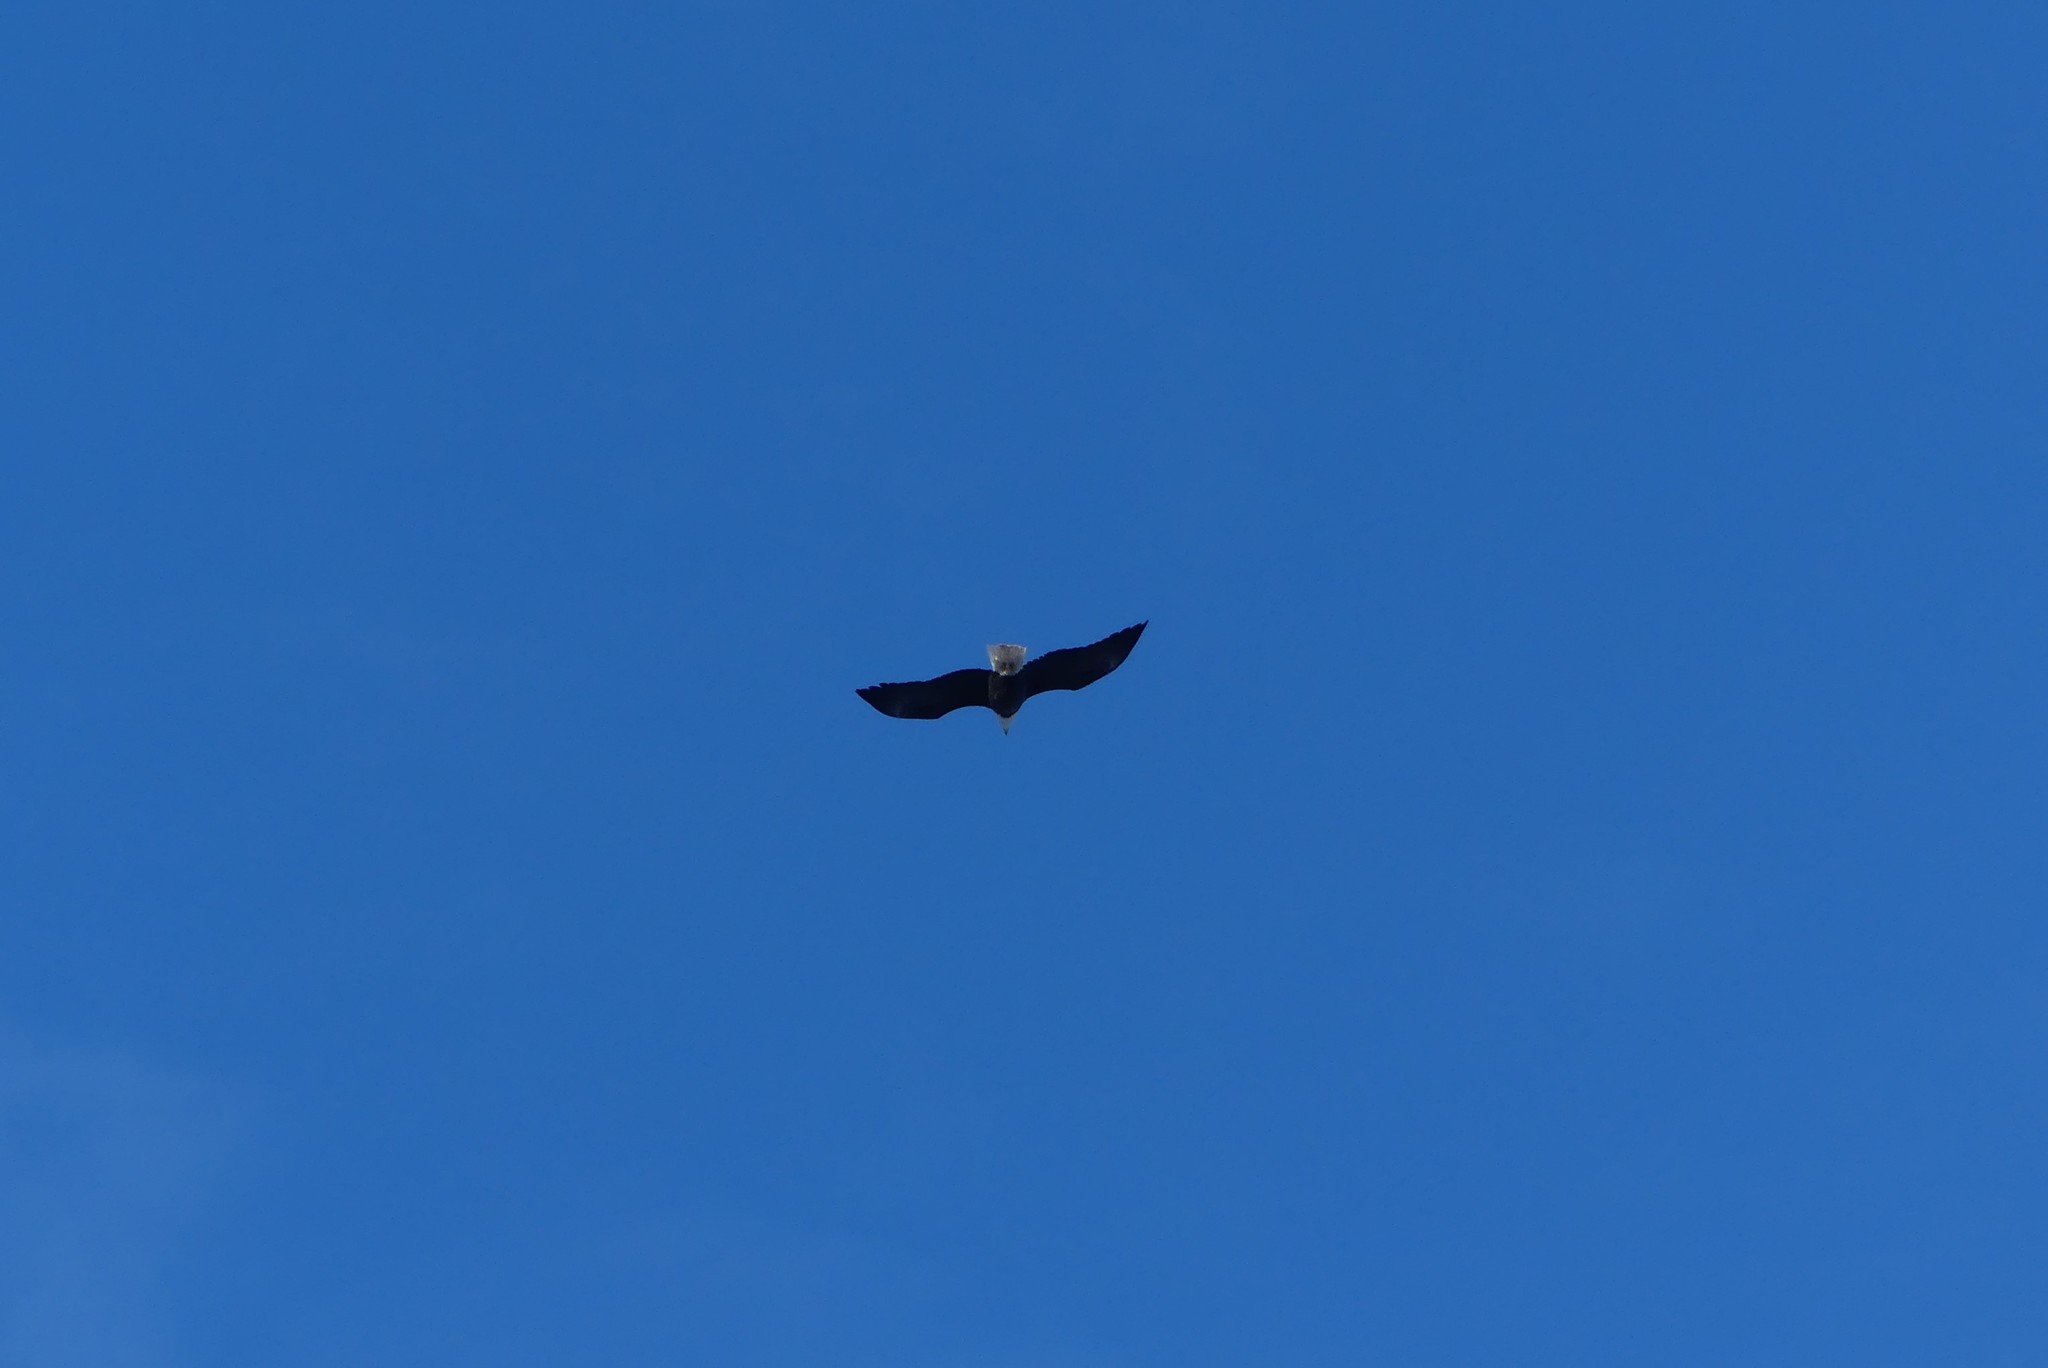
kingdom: Animalia
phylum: Chordata
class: Aves
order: Accipitriformes
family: Accipitridae
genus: Haliaeetus
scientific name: Haliaeetus leucocephalus
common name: Bald eagle
